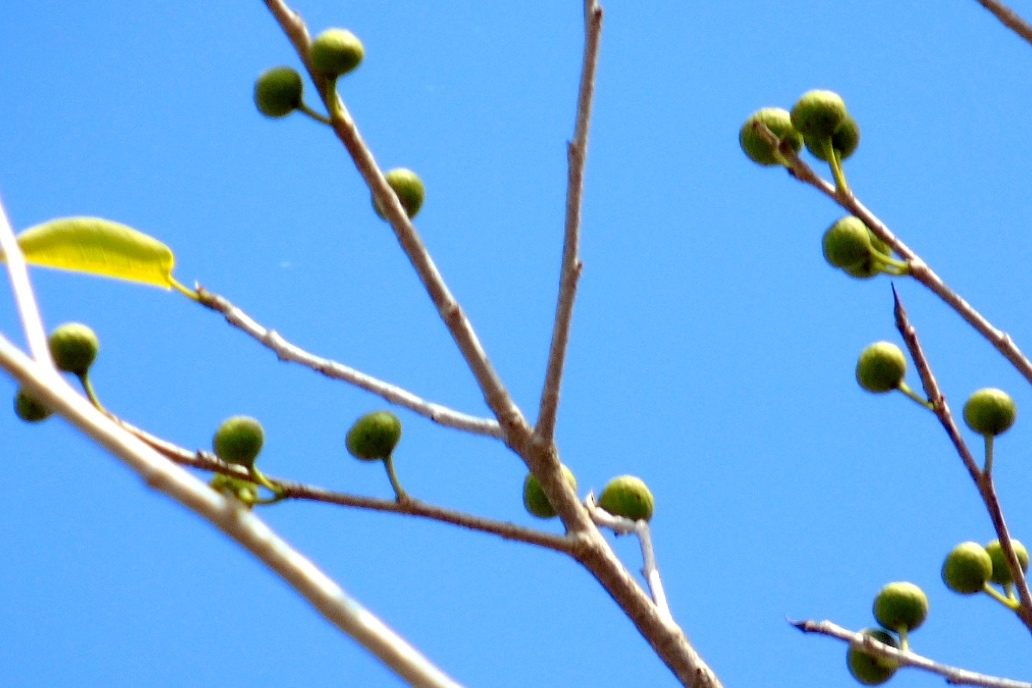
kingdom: Plantae
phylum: Tracheophyta
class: Magnoliopsida
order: Rosales
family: Moraceae
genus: Ficus
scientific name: Ficus
